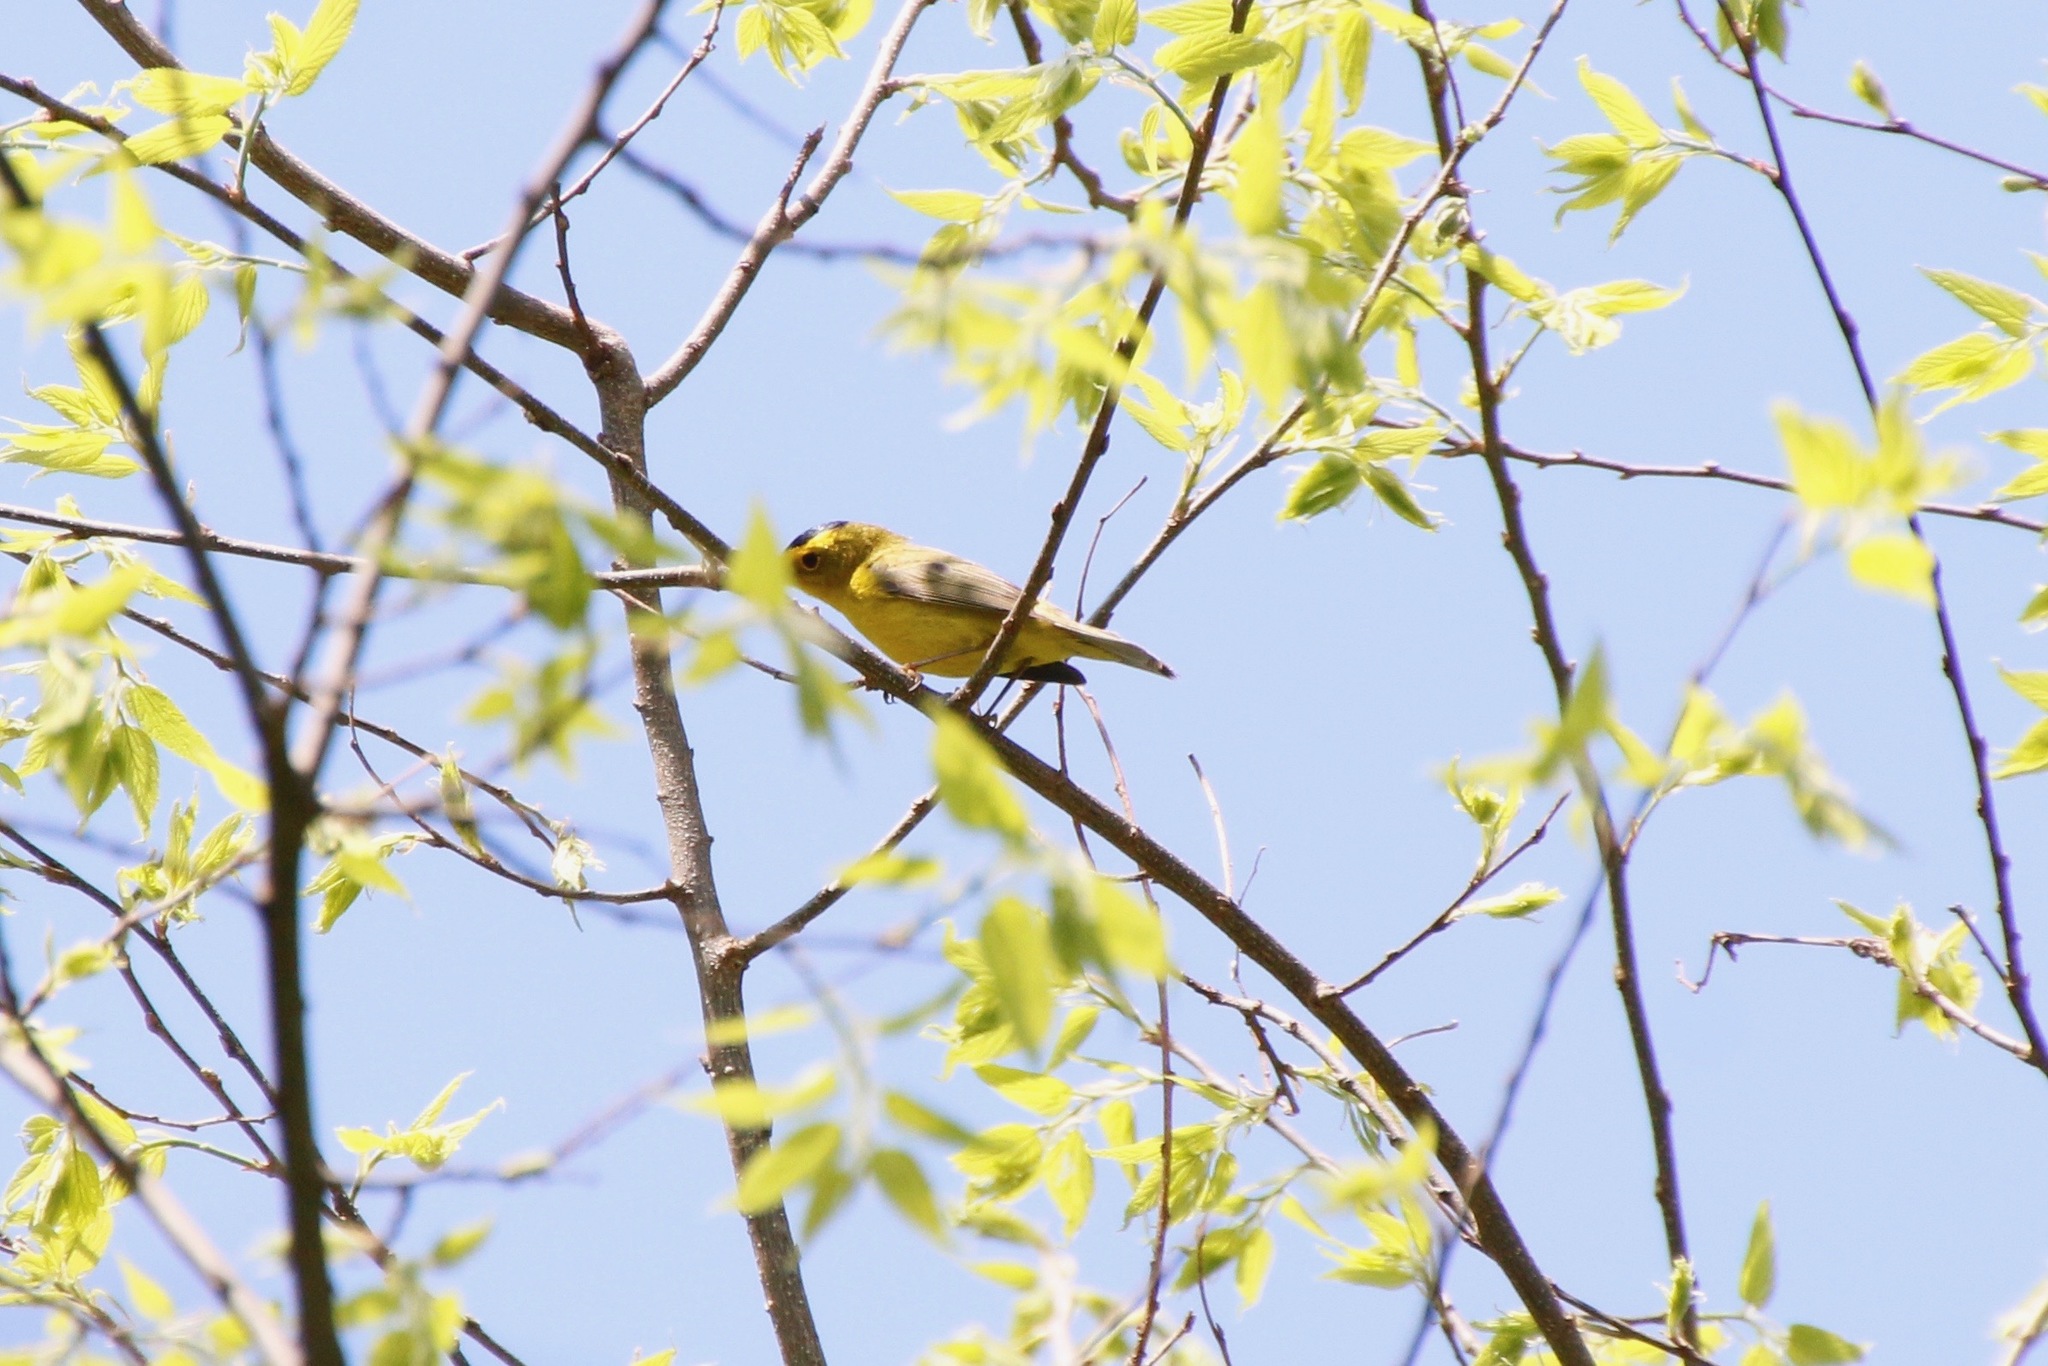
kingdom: Animalia
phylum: Chordata
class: Aves
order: Passeriformes
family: Parulidae
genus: Cardellina
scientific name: Cardellina pusilla
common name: Wilson's warbler
